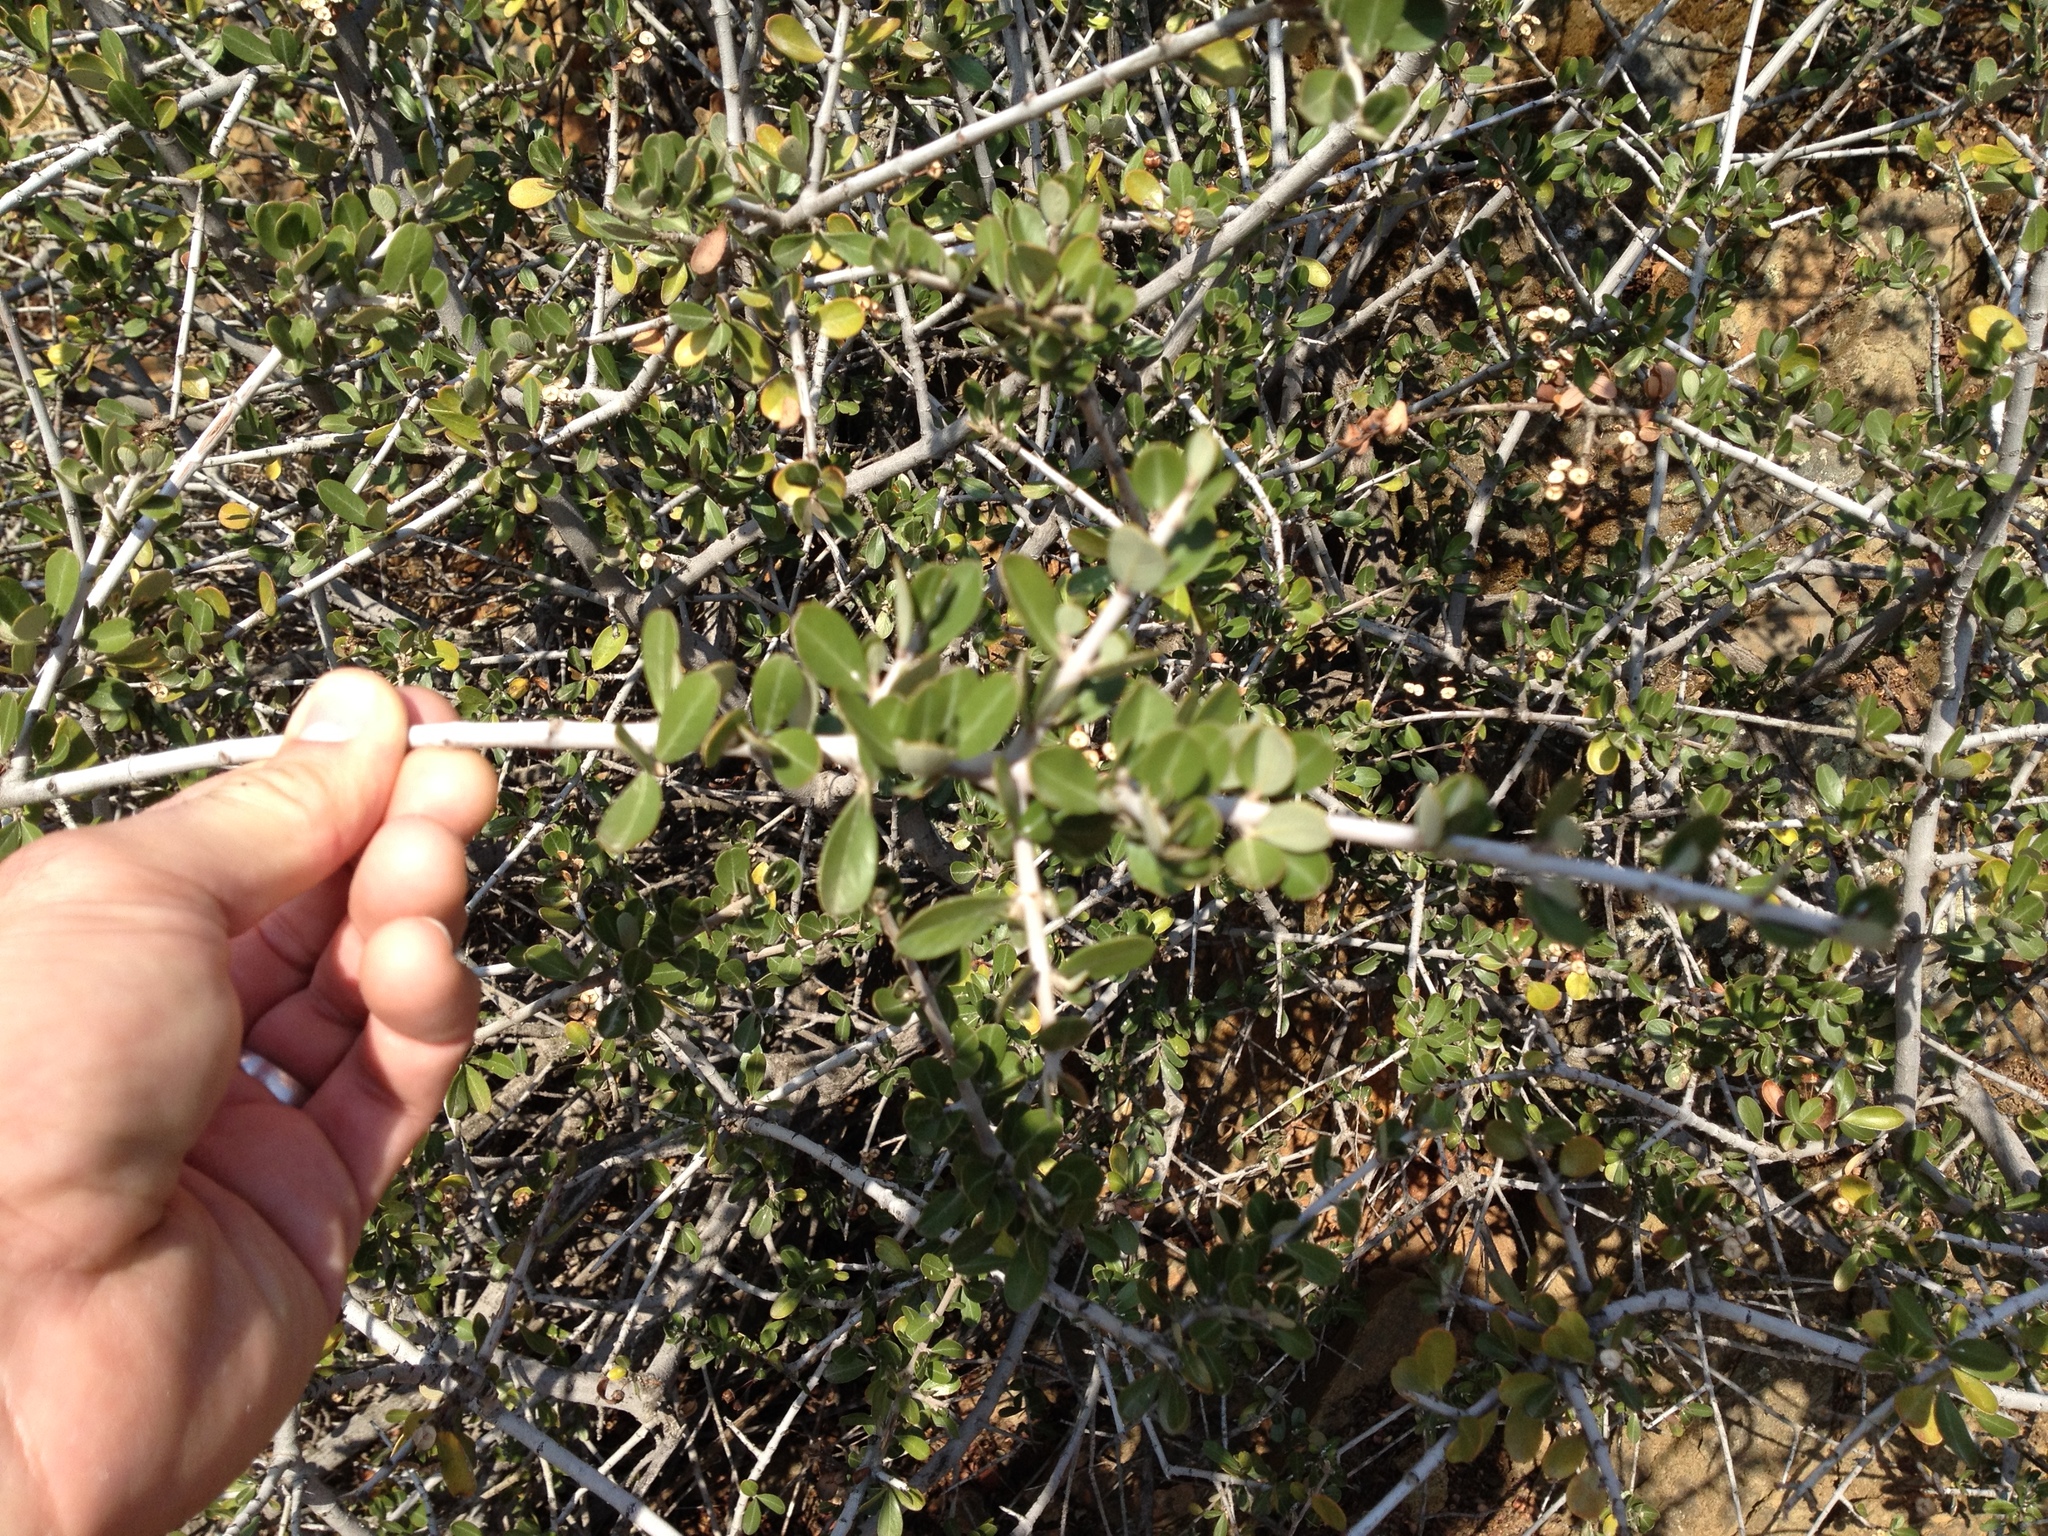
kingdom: Plantae
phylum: Tracheophyta
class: Magnoliopsida
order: Rosales
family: Rhamnaceae
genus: Ceanothus
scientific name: Ceanothus cuneatus
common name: Cuneate ceanothus
